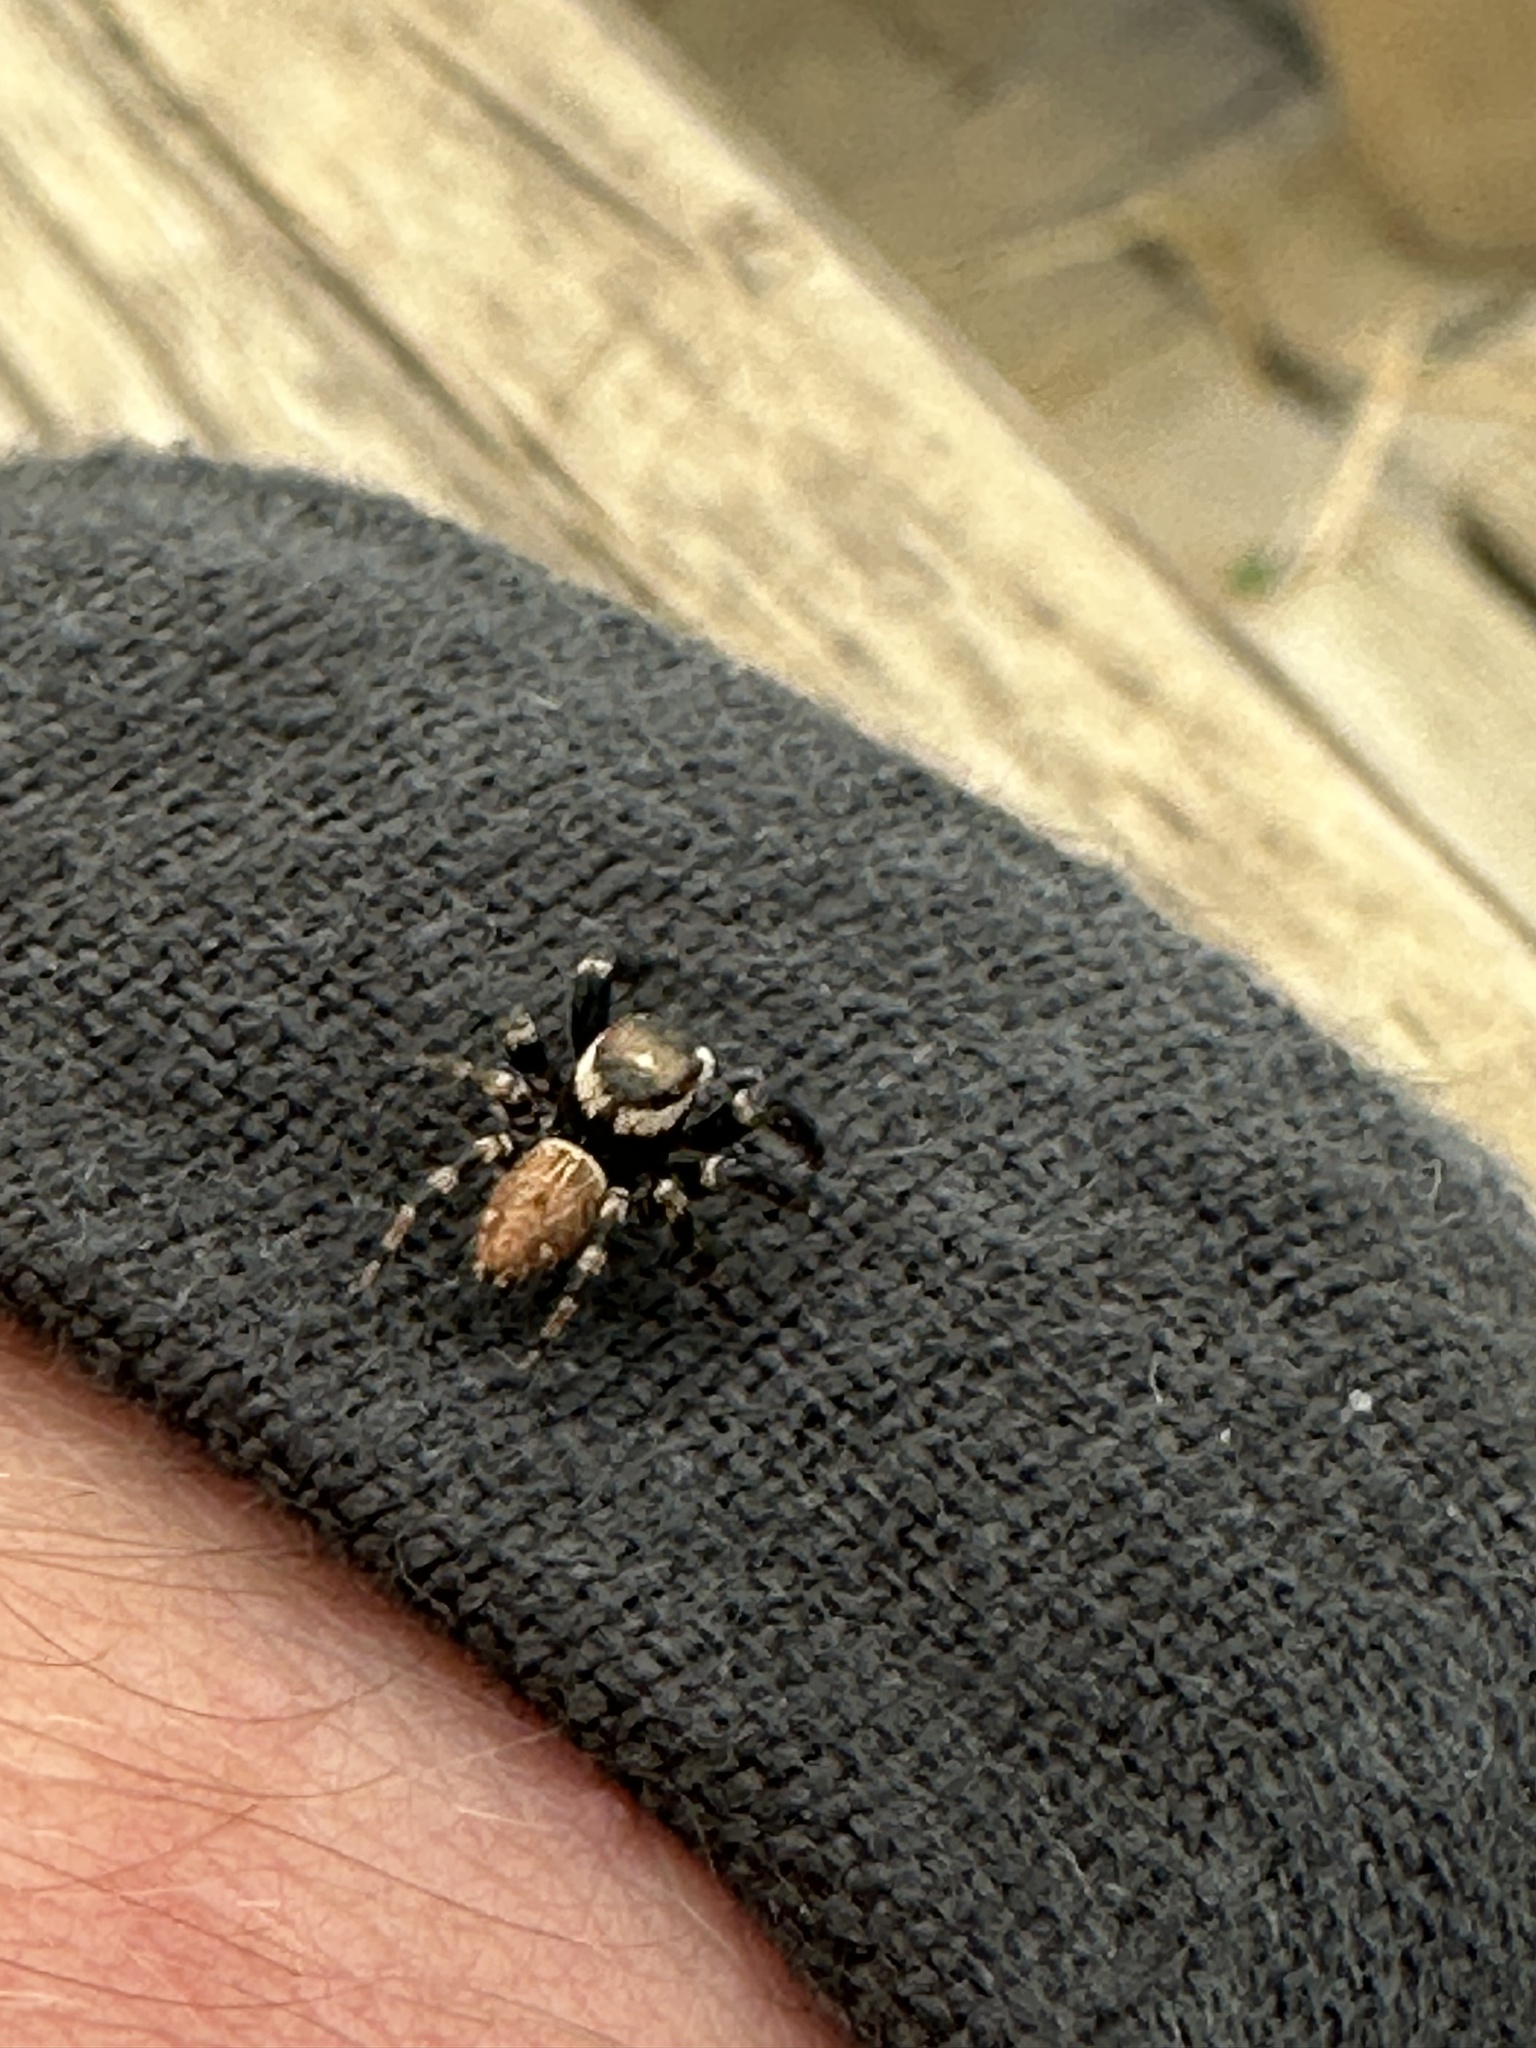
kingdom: Animalia
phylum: Arthropoda
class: Arachnida
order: Araneae
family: Salticidae
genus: Evarcha
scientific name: Evarcha jucunda
